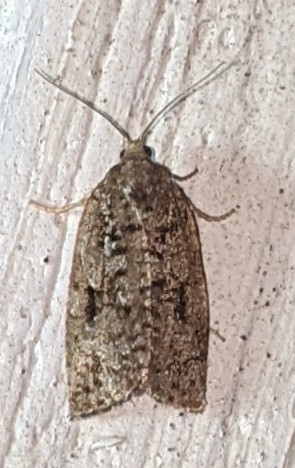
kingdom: Animalia
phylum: Arthropoda
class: Insecta
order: Lepidoptera
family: Tortricidae
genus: Choristoneura
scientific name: Choristoneura fumiferana
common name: Spruce budworm
